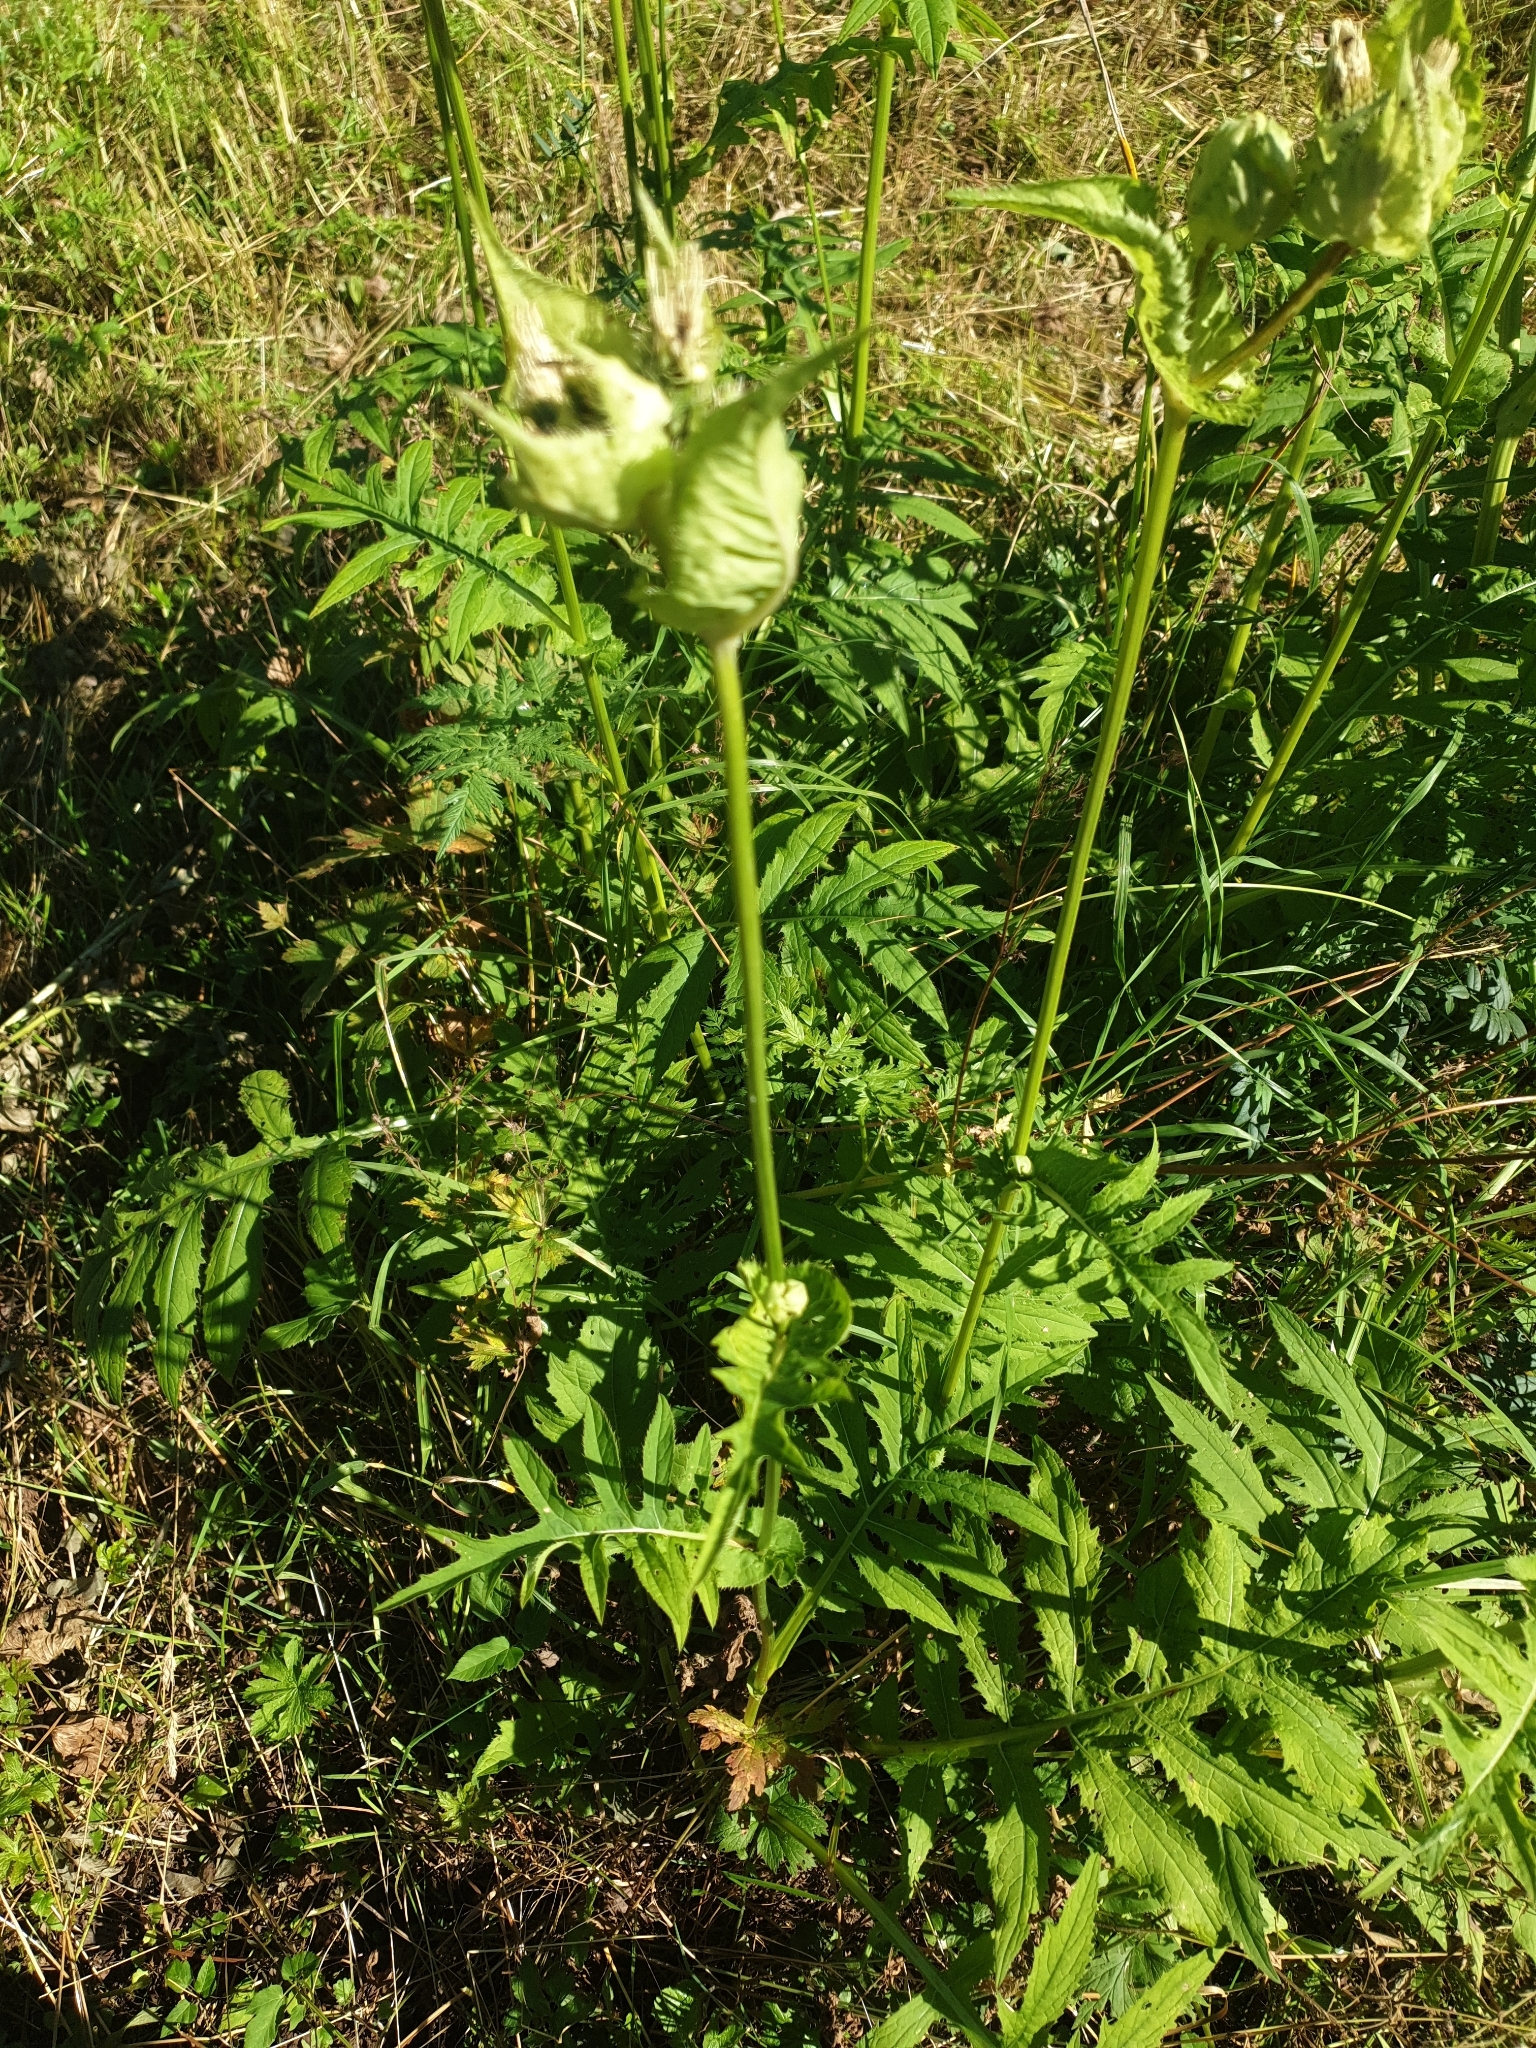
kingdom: Plantae
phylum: Tracheophyta
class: Magnoliopsida
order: Asterales
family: Asteraceae
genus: Cirsium
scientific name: Cirsium oleraceum
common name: Cabbage thistle
